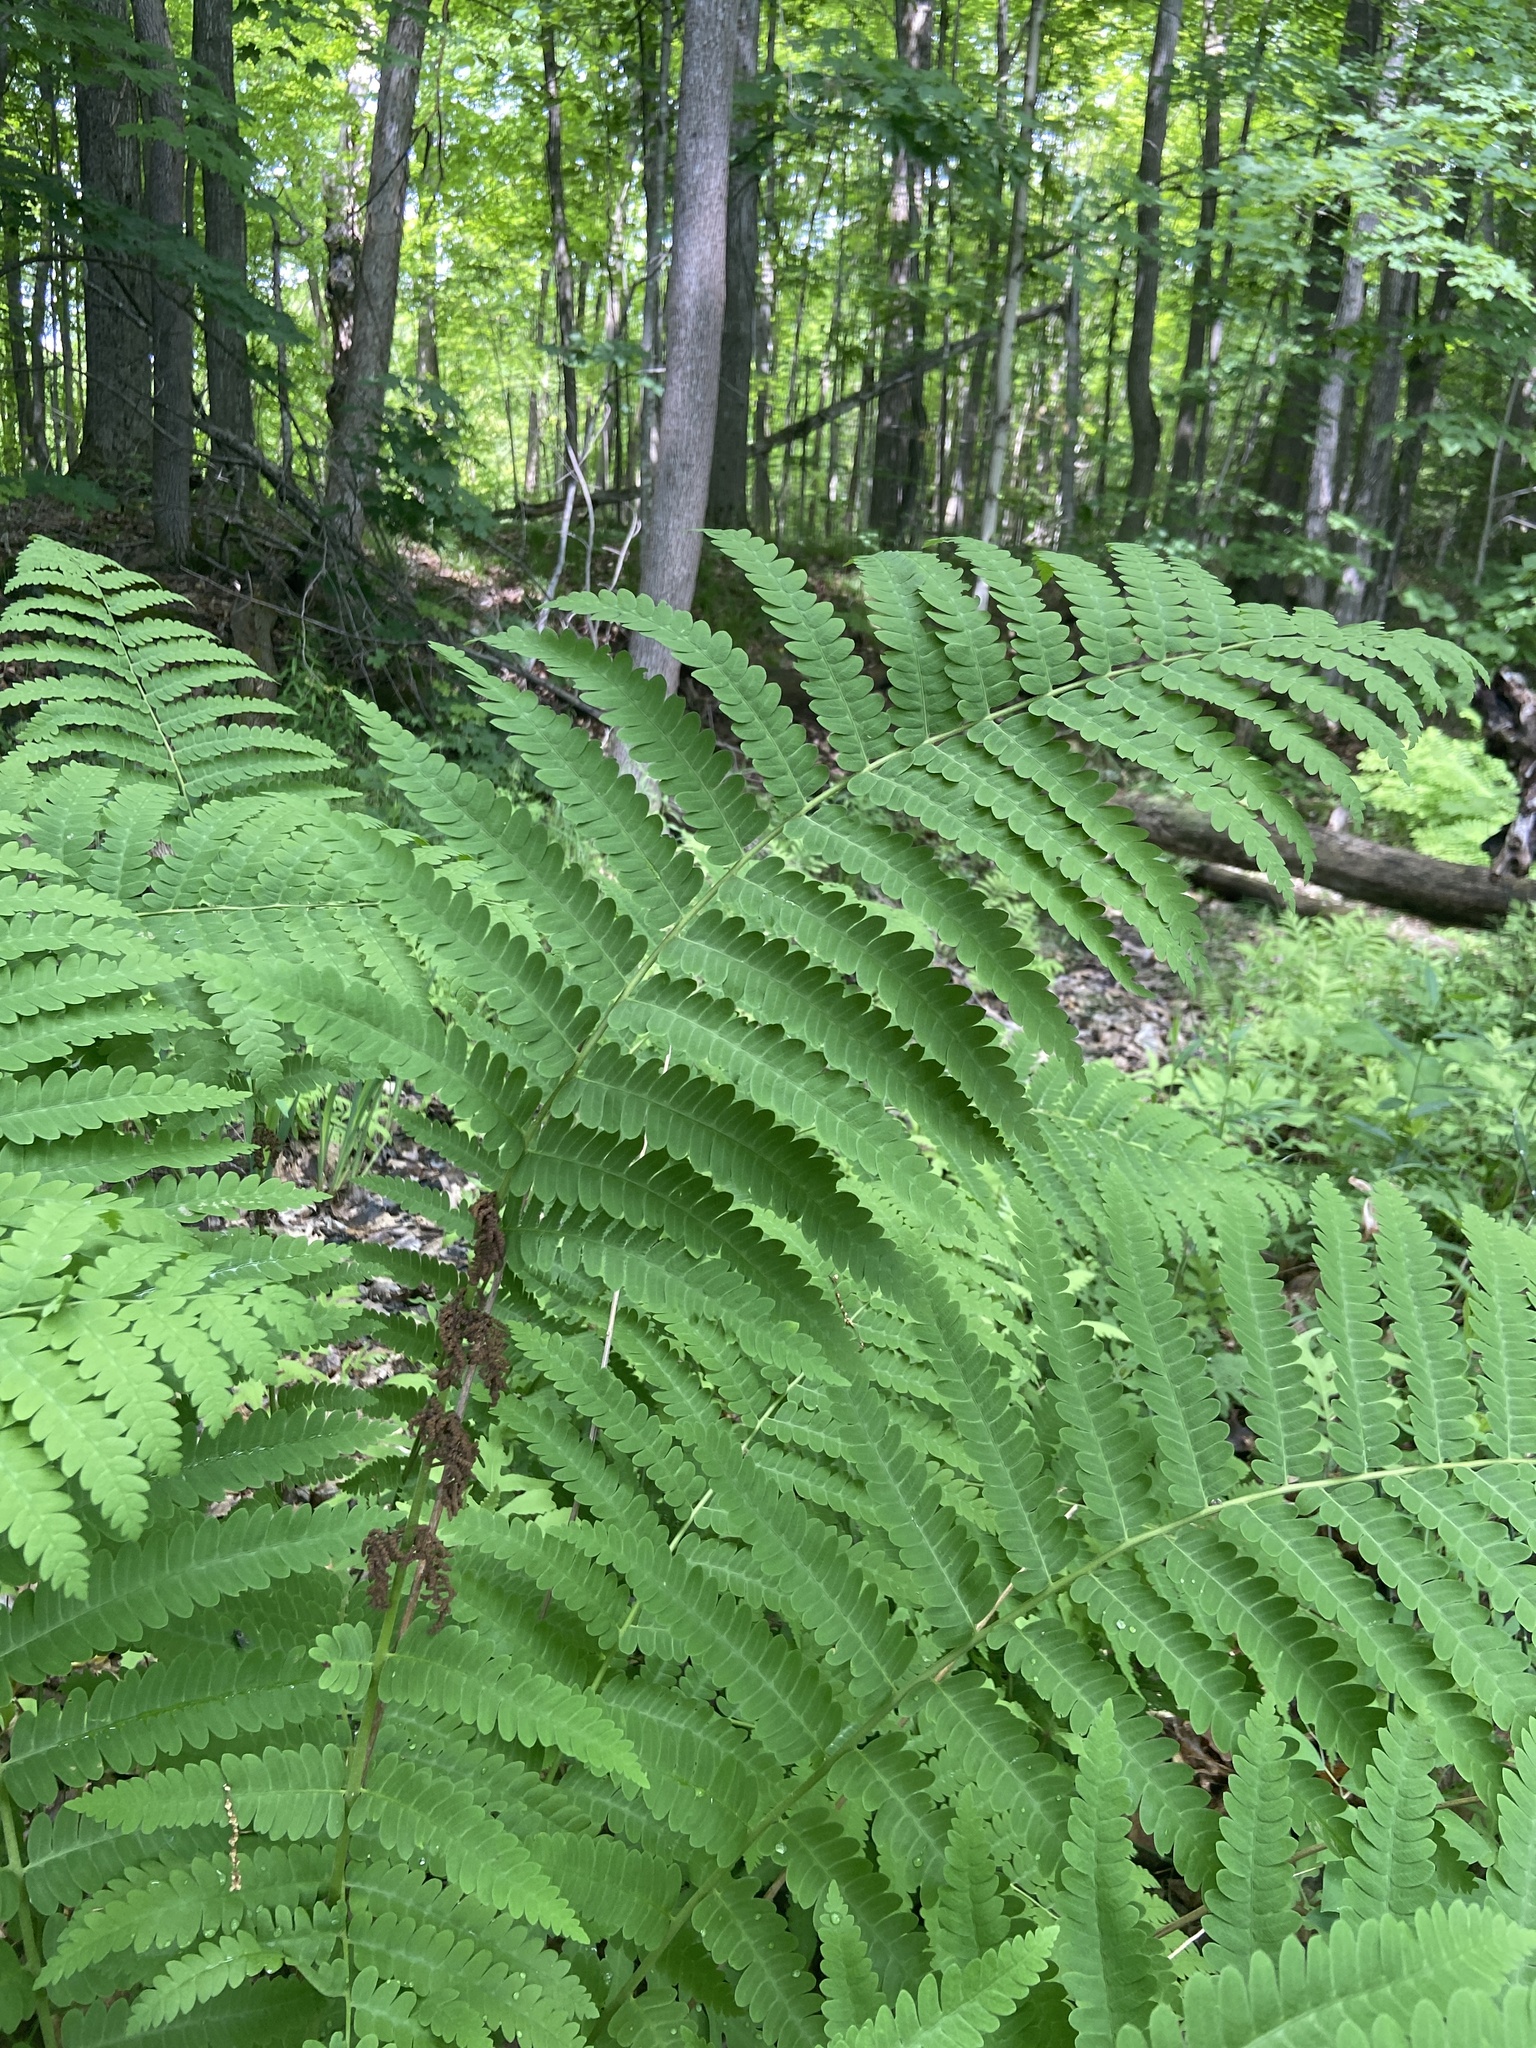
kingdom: Plantae
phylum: Tracheophyta
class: Polypodiopsida
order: Osmundales
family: Osmundaceae
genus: Claytosmunda
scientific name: Claytosmunda claytoniana
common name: Clayton's fern
